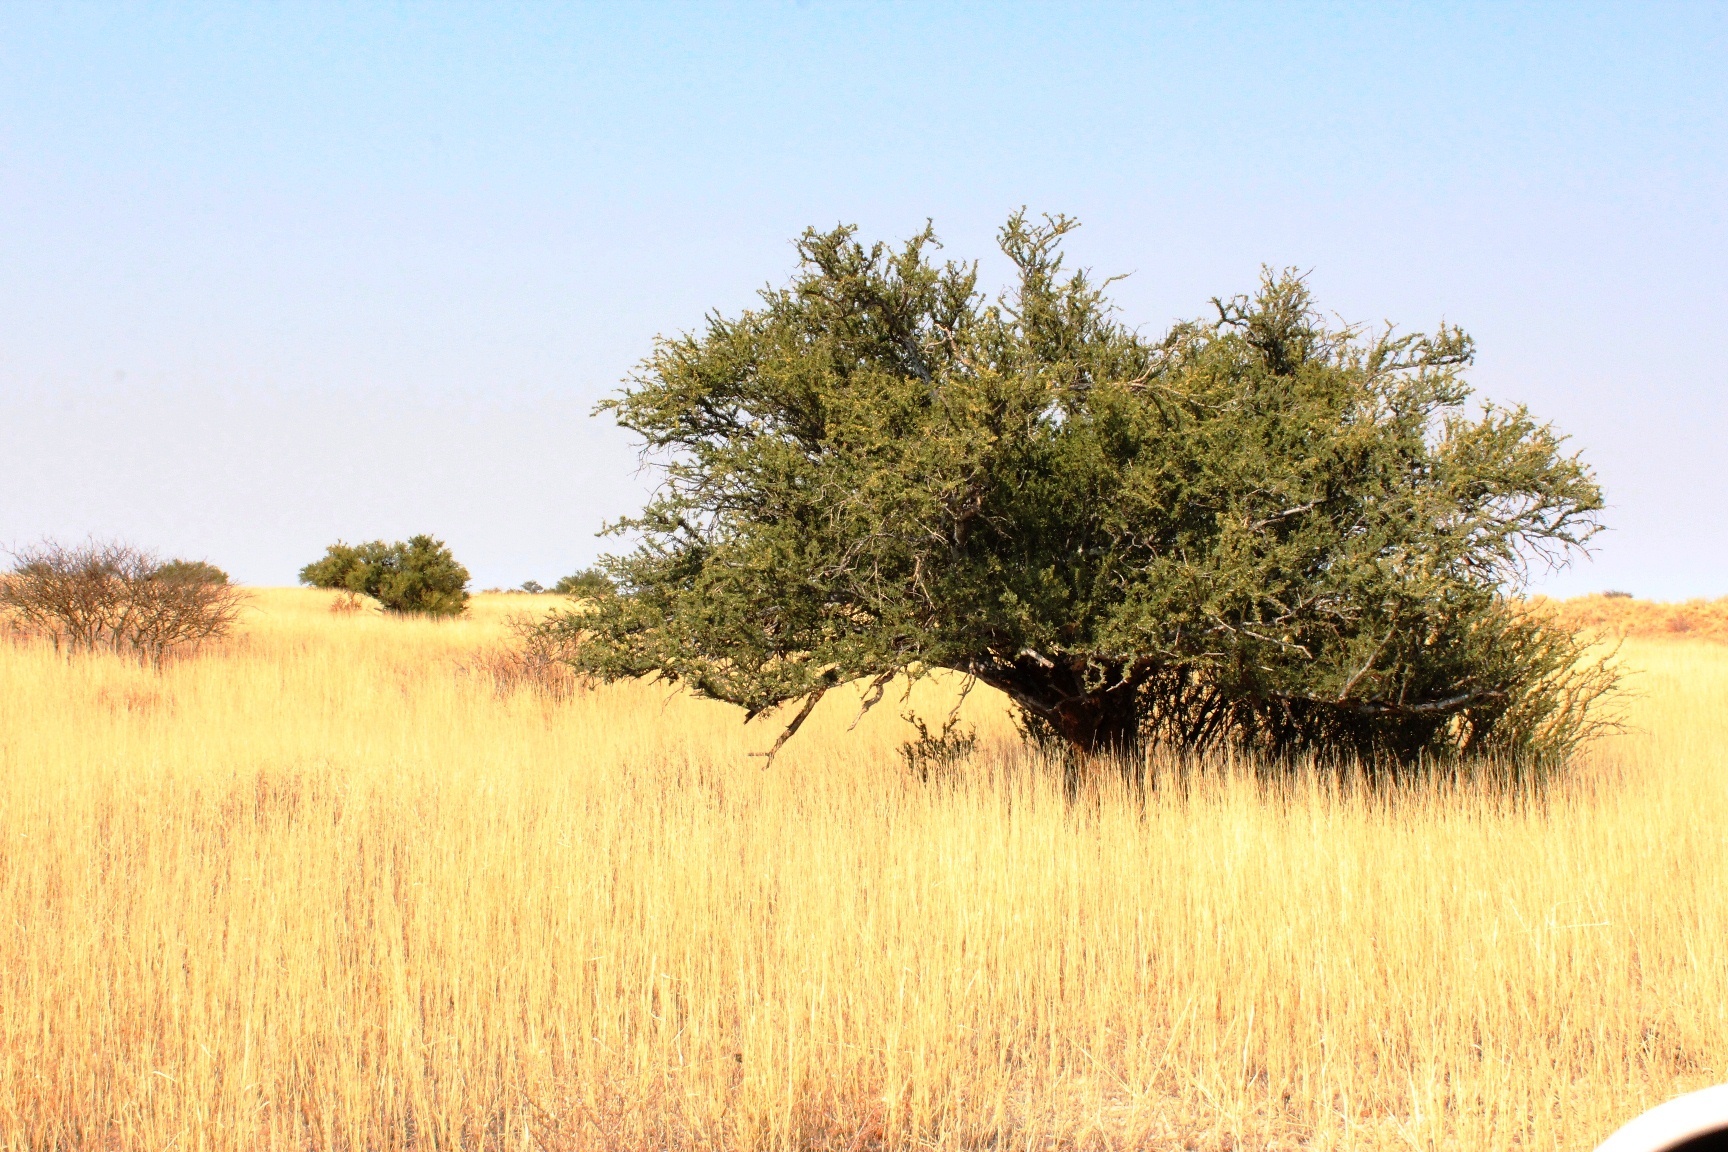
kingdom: Plantae
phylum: Tracheophyta
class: Magnoliopsida
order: Brassicales
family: Capparaceae
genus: Boscia
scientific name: Boscia albitrunca
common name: Caper bush
